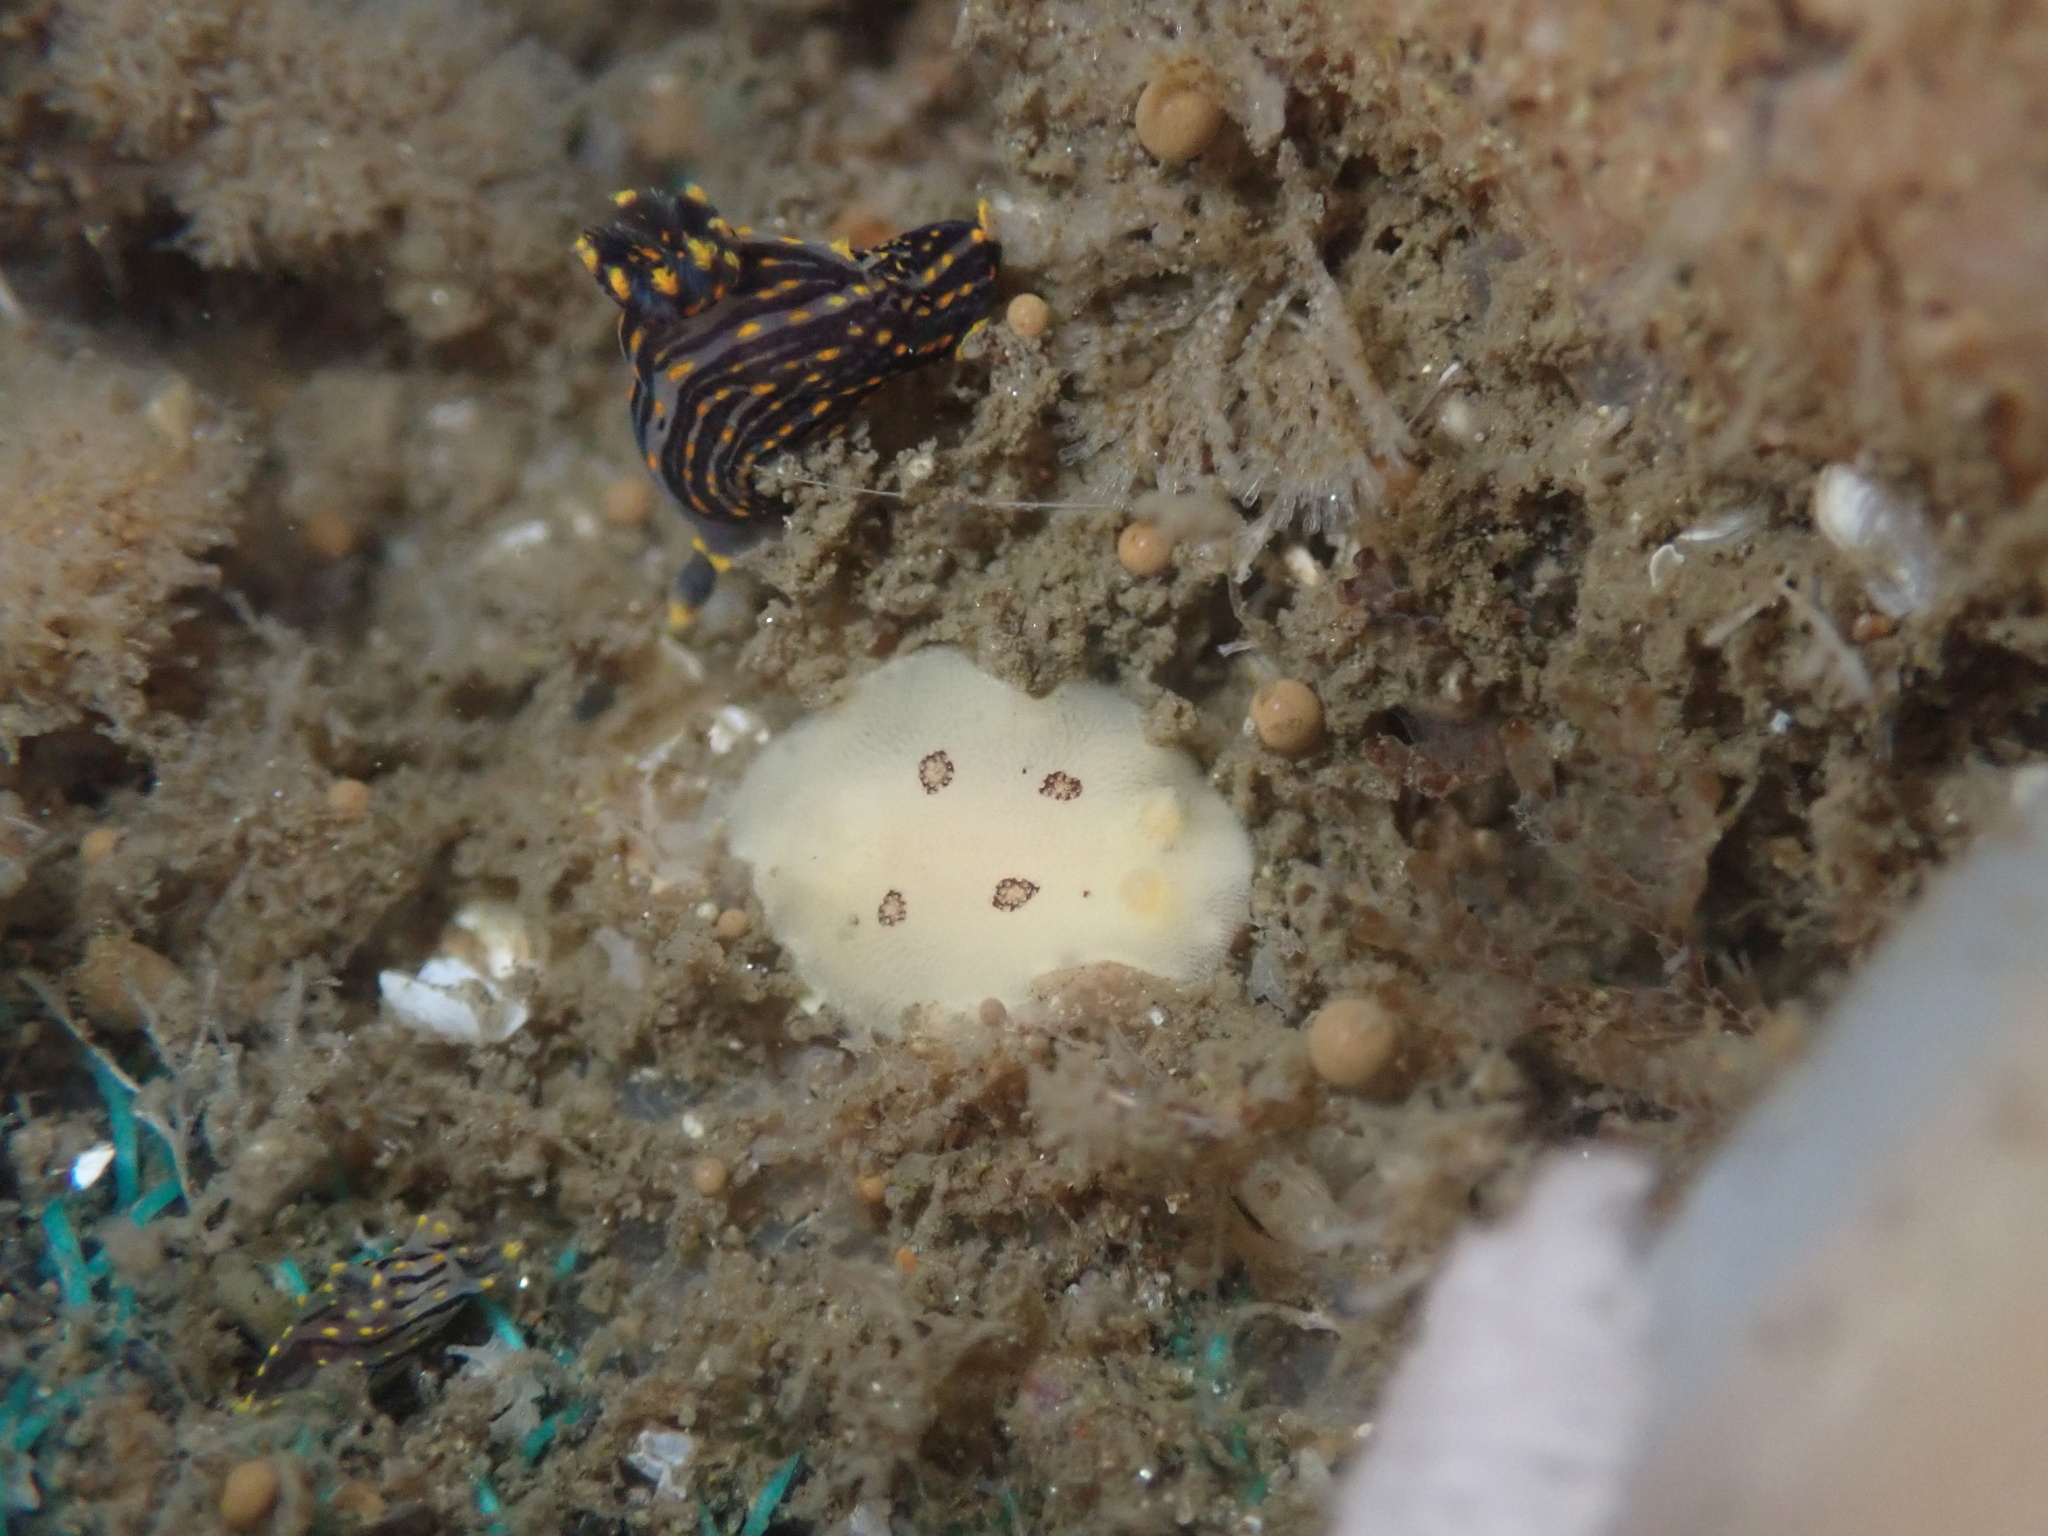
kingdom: Animalia
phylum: Mollusca
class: Gastropoda
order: Nudibranchia
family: Discodorididae
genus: Diaulula
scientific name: Diaulula sandiegensis
